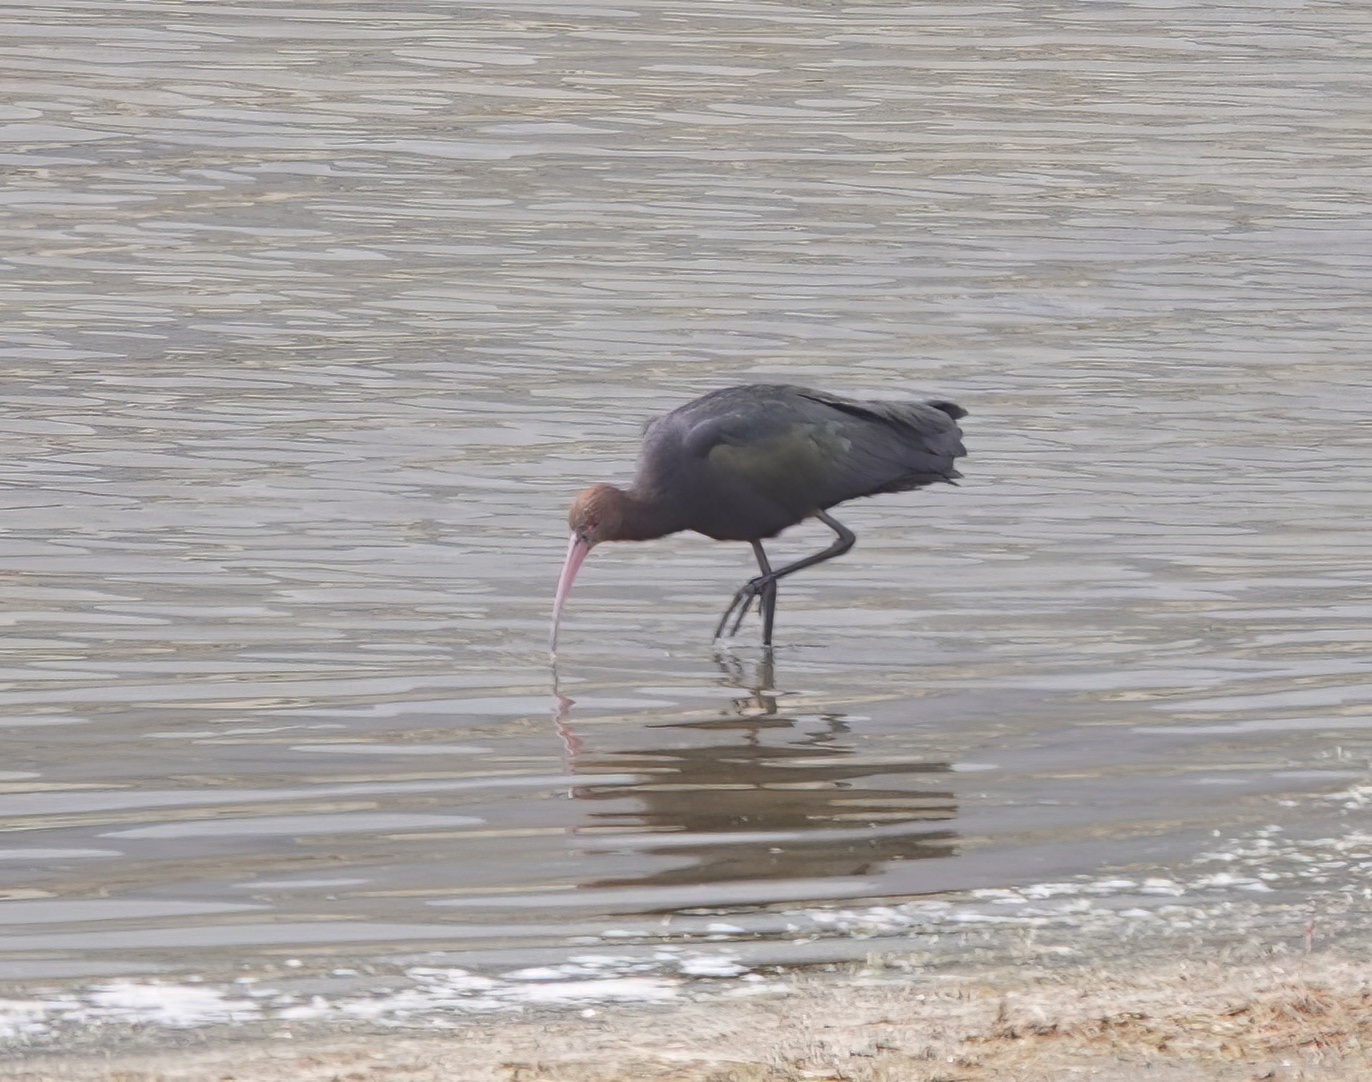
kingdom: Animalia
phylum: Chordata
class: Aves
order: Pelecaniformes
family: Threskiornithidae
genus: Plegadis
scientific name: Plegadis ridgwayi
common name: Puna ibis
